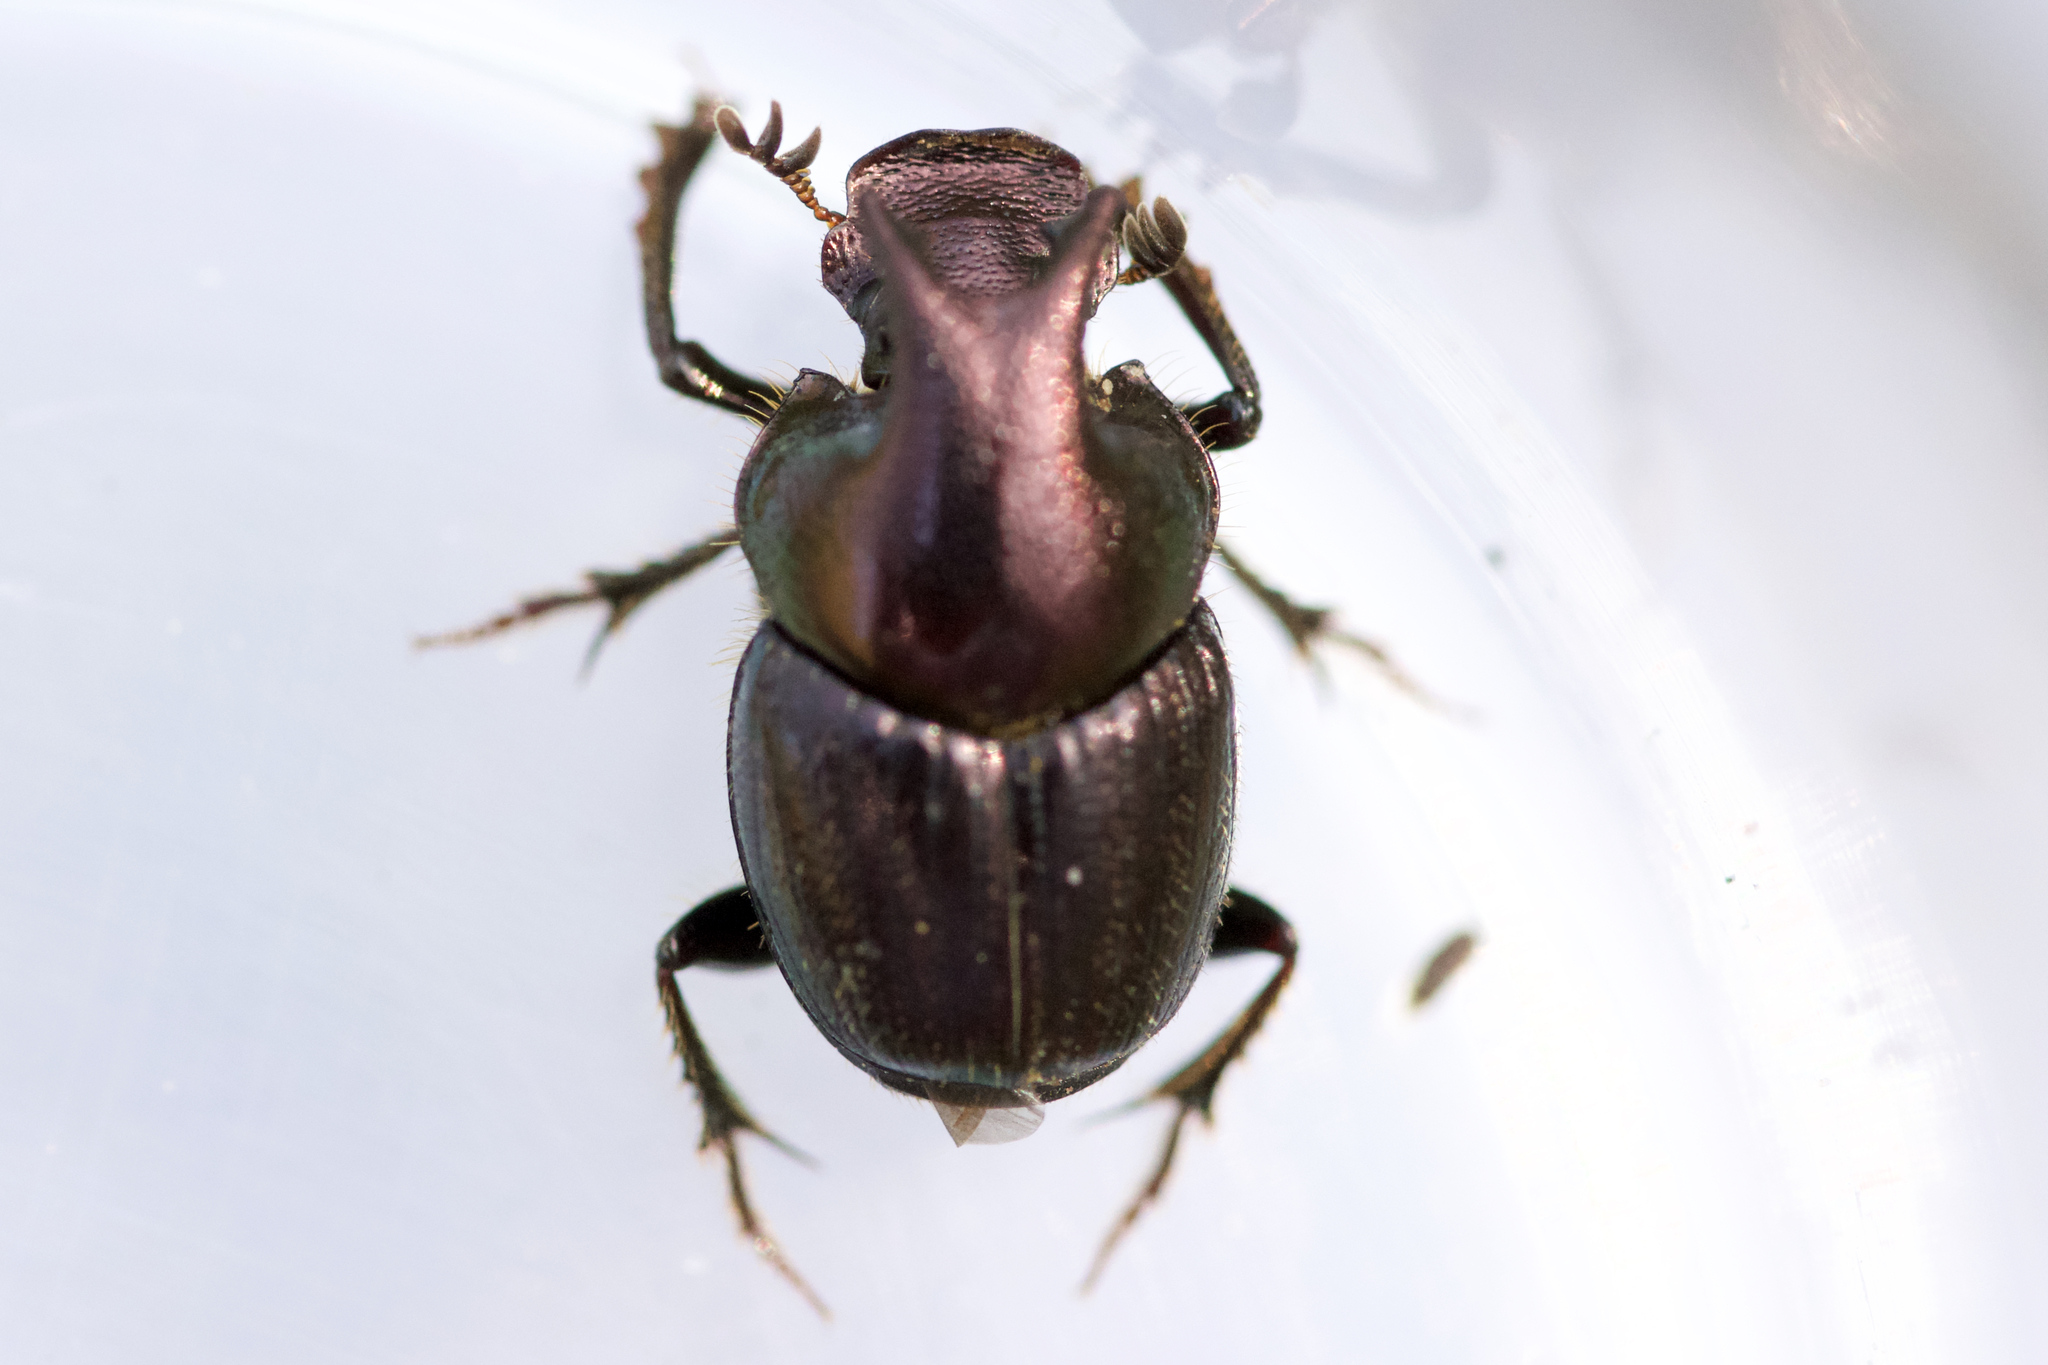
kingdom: Animalia
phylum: Arthropoda
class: Insecta
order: Coleoptera
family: Scarabaeidae
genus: Onthophagus
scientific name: Onthophagus orpheus
